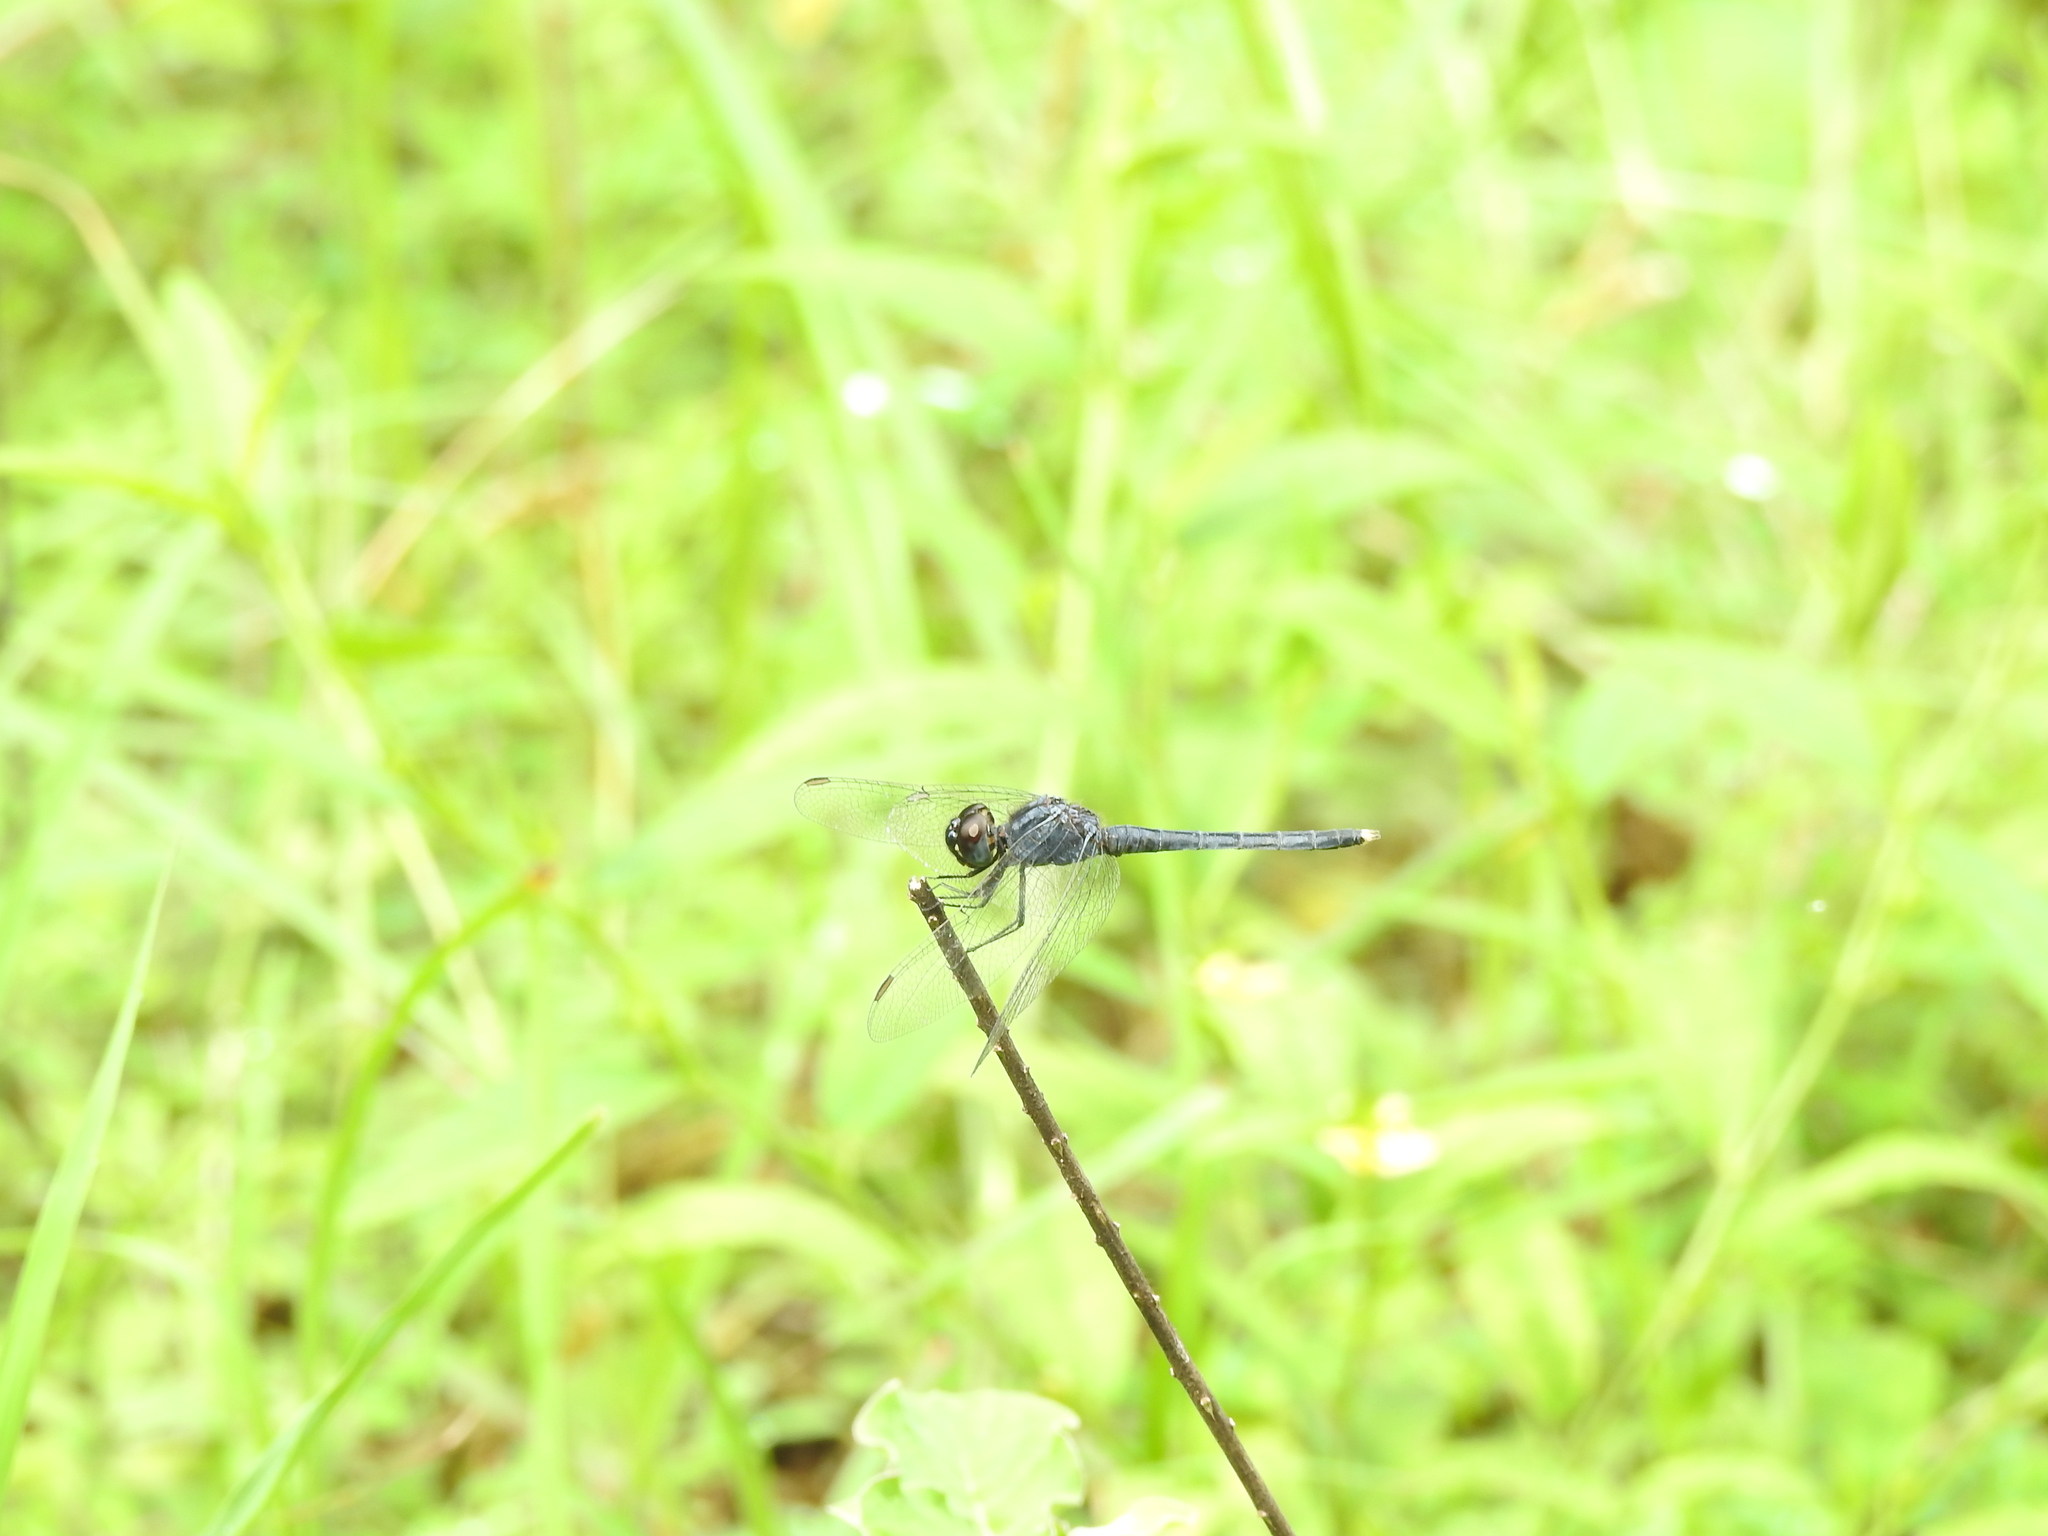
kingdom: Animalia
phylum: Arthropoda
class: Insecta
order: Odonata
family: Libellulidae
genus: Indothemis
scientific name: Indothemis carnatica
